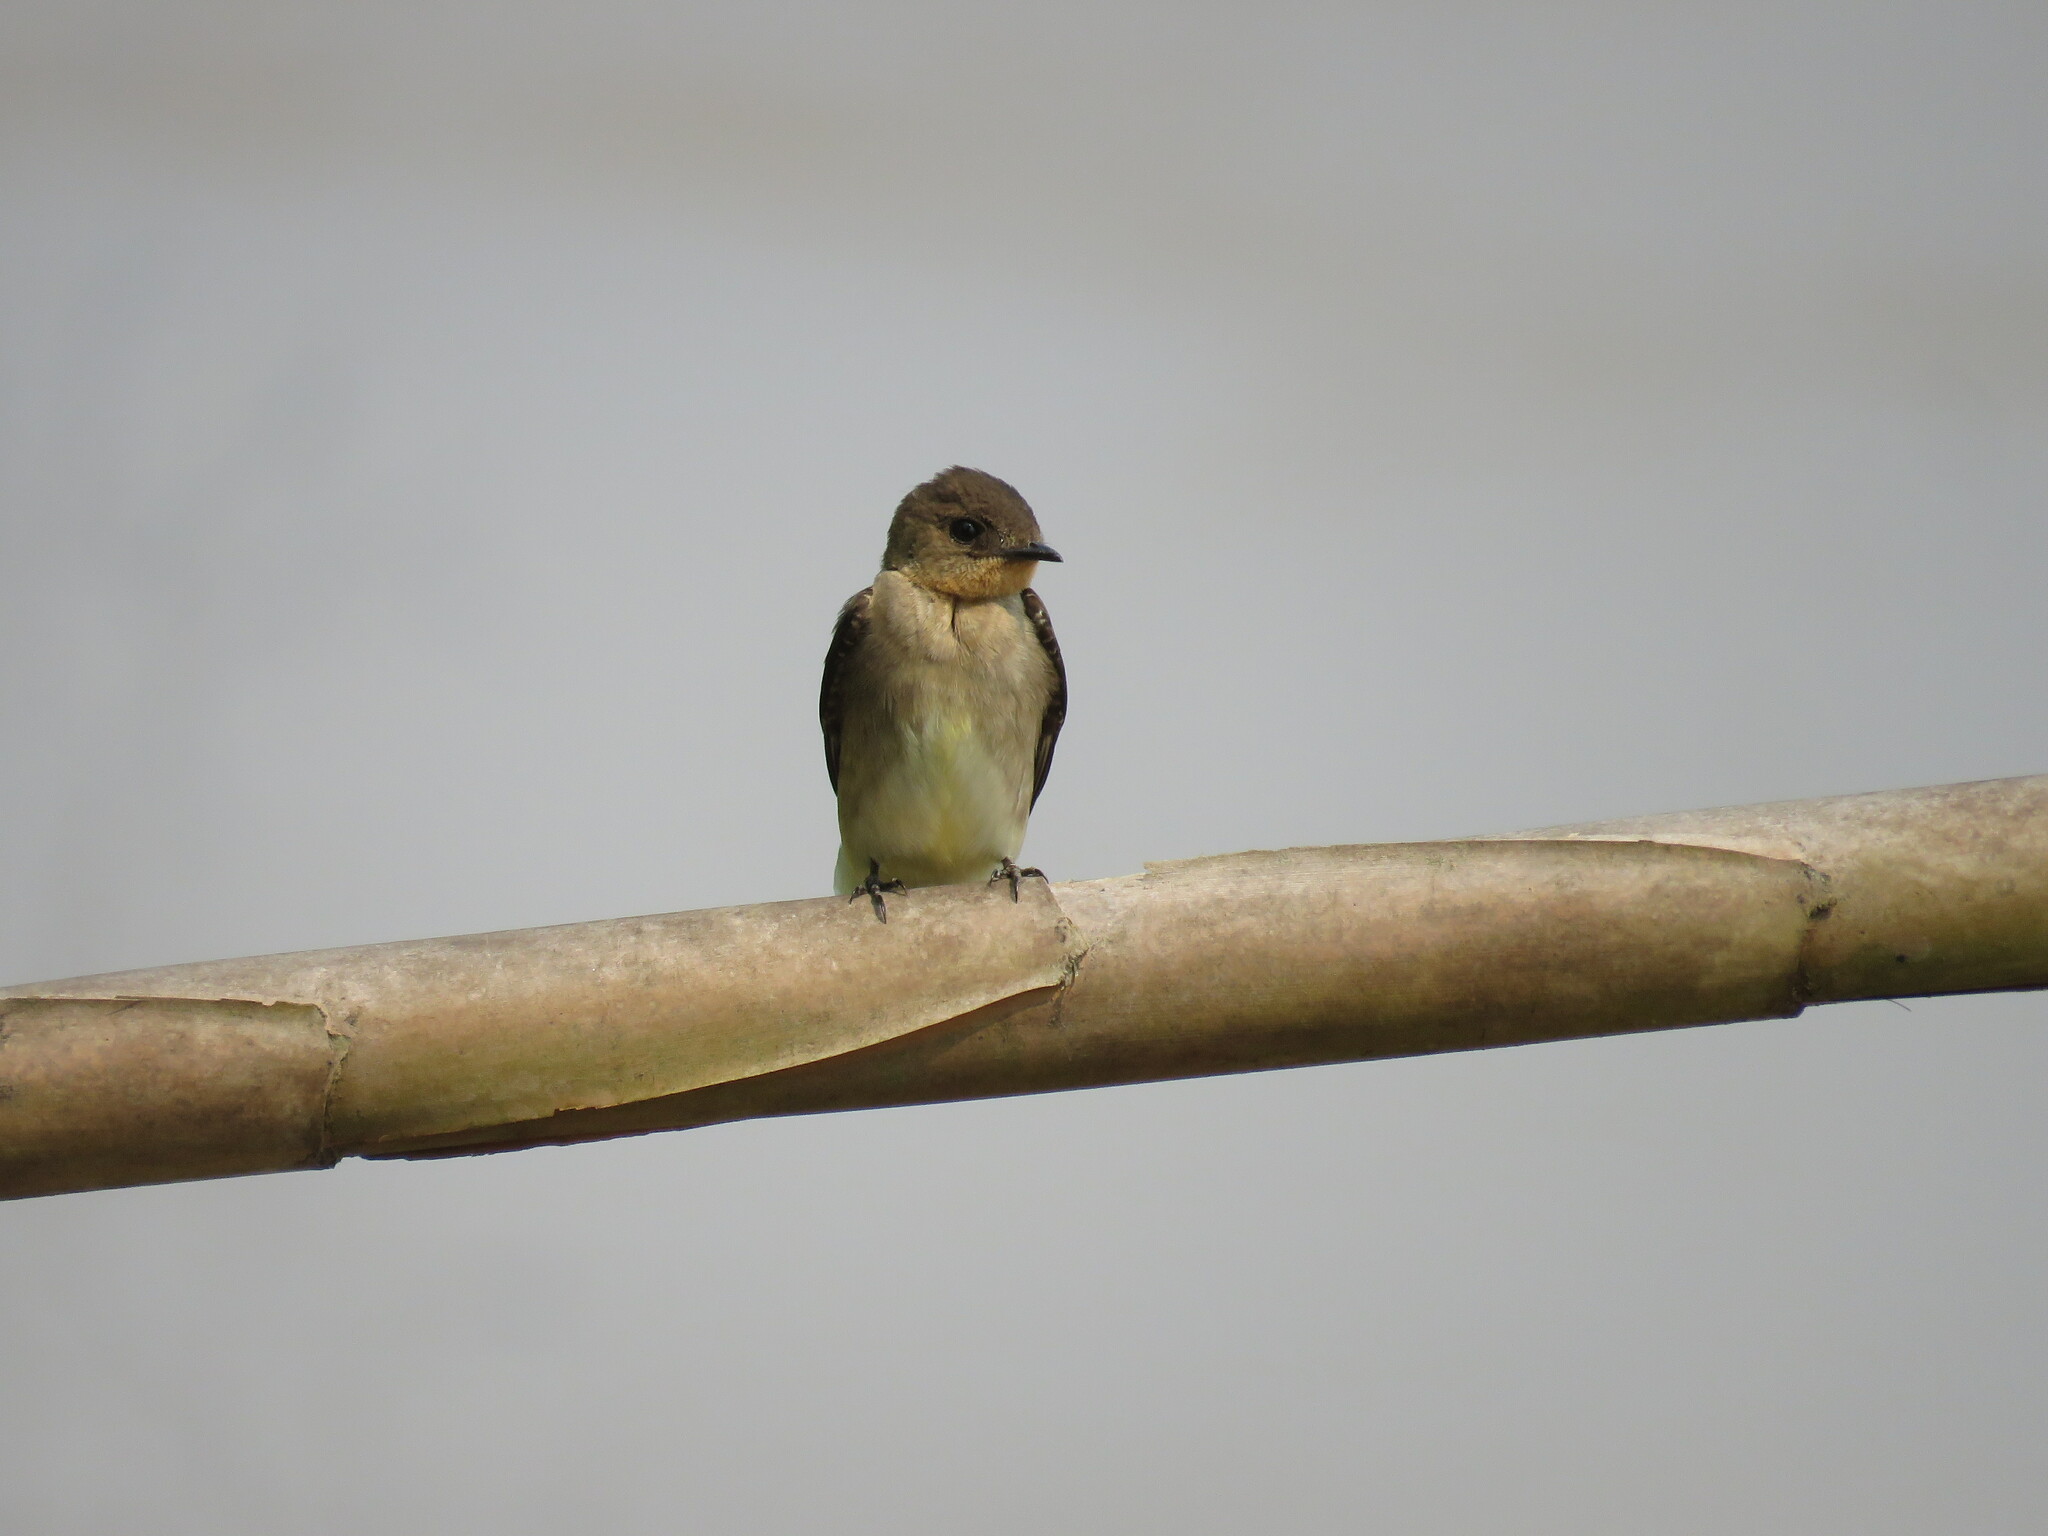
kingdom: Animalia
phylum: Chordata
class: Aves
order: Passeriformes
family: Hirundinidae
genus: Stelgidopteryx
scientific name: Stelgidopteryx ruficollis
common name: Southern rough-winged swallow
